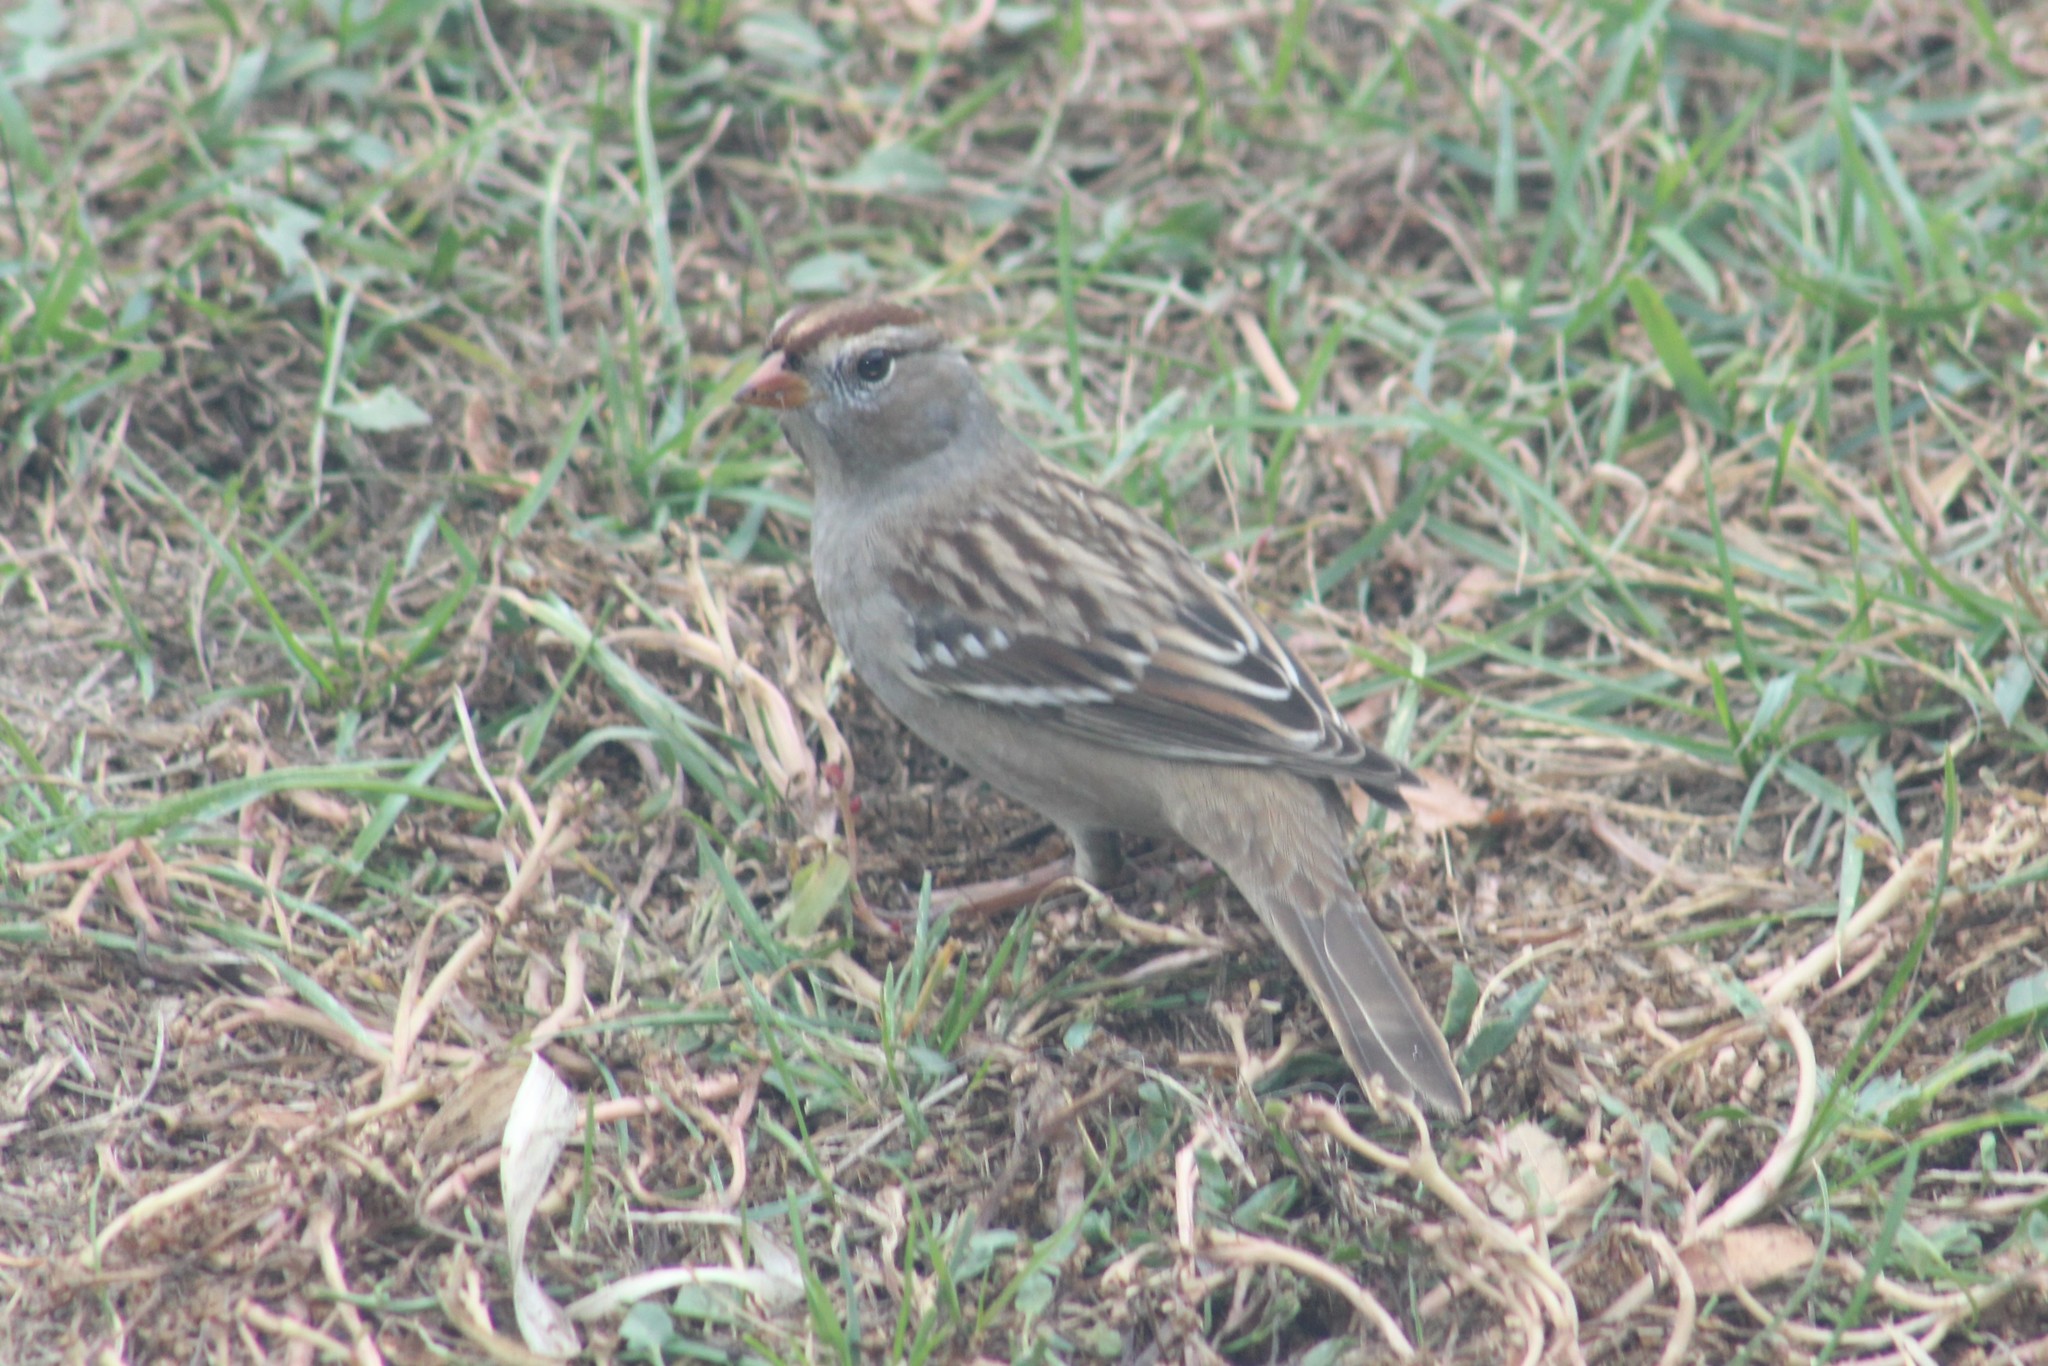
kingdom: Animalia
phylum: Chordata
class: Aves
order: Passeriformes
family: Passerellidae
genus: Zonotrichia
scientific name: Zonotrichia leucophrys
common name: White-crowned sparrow
